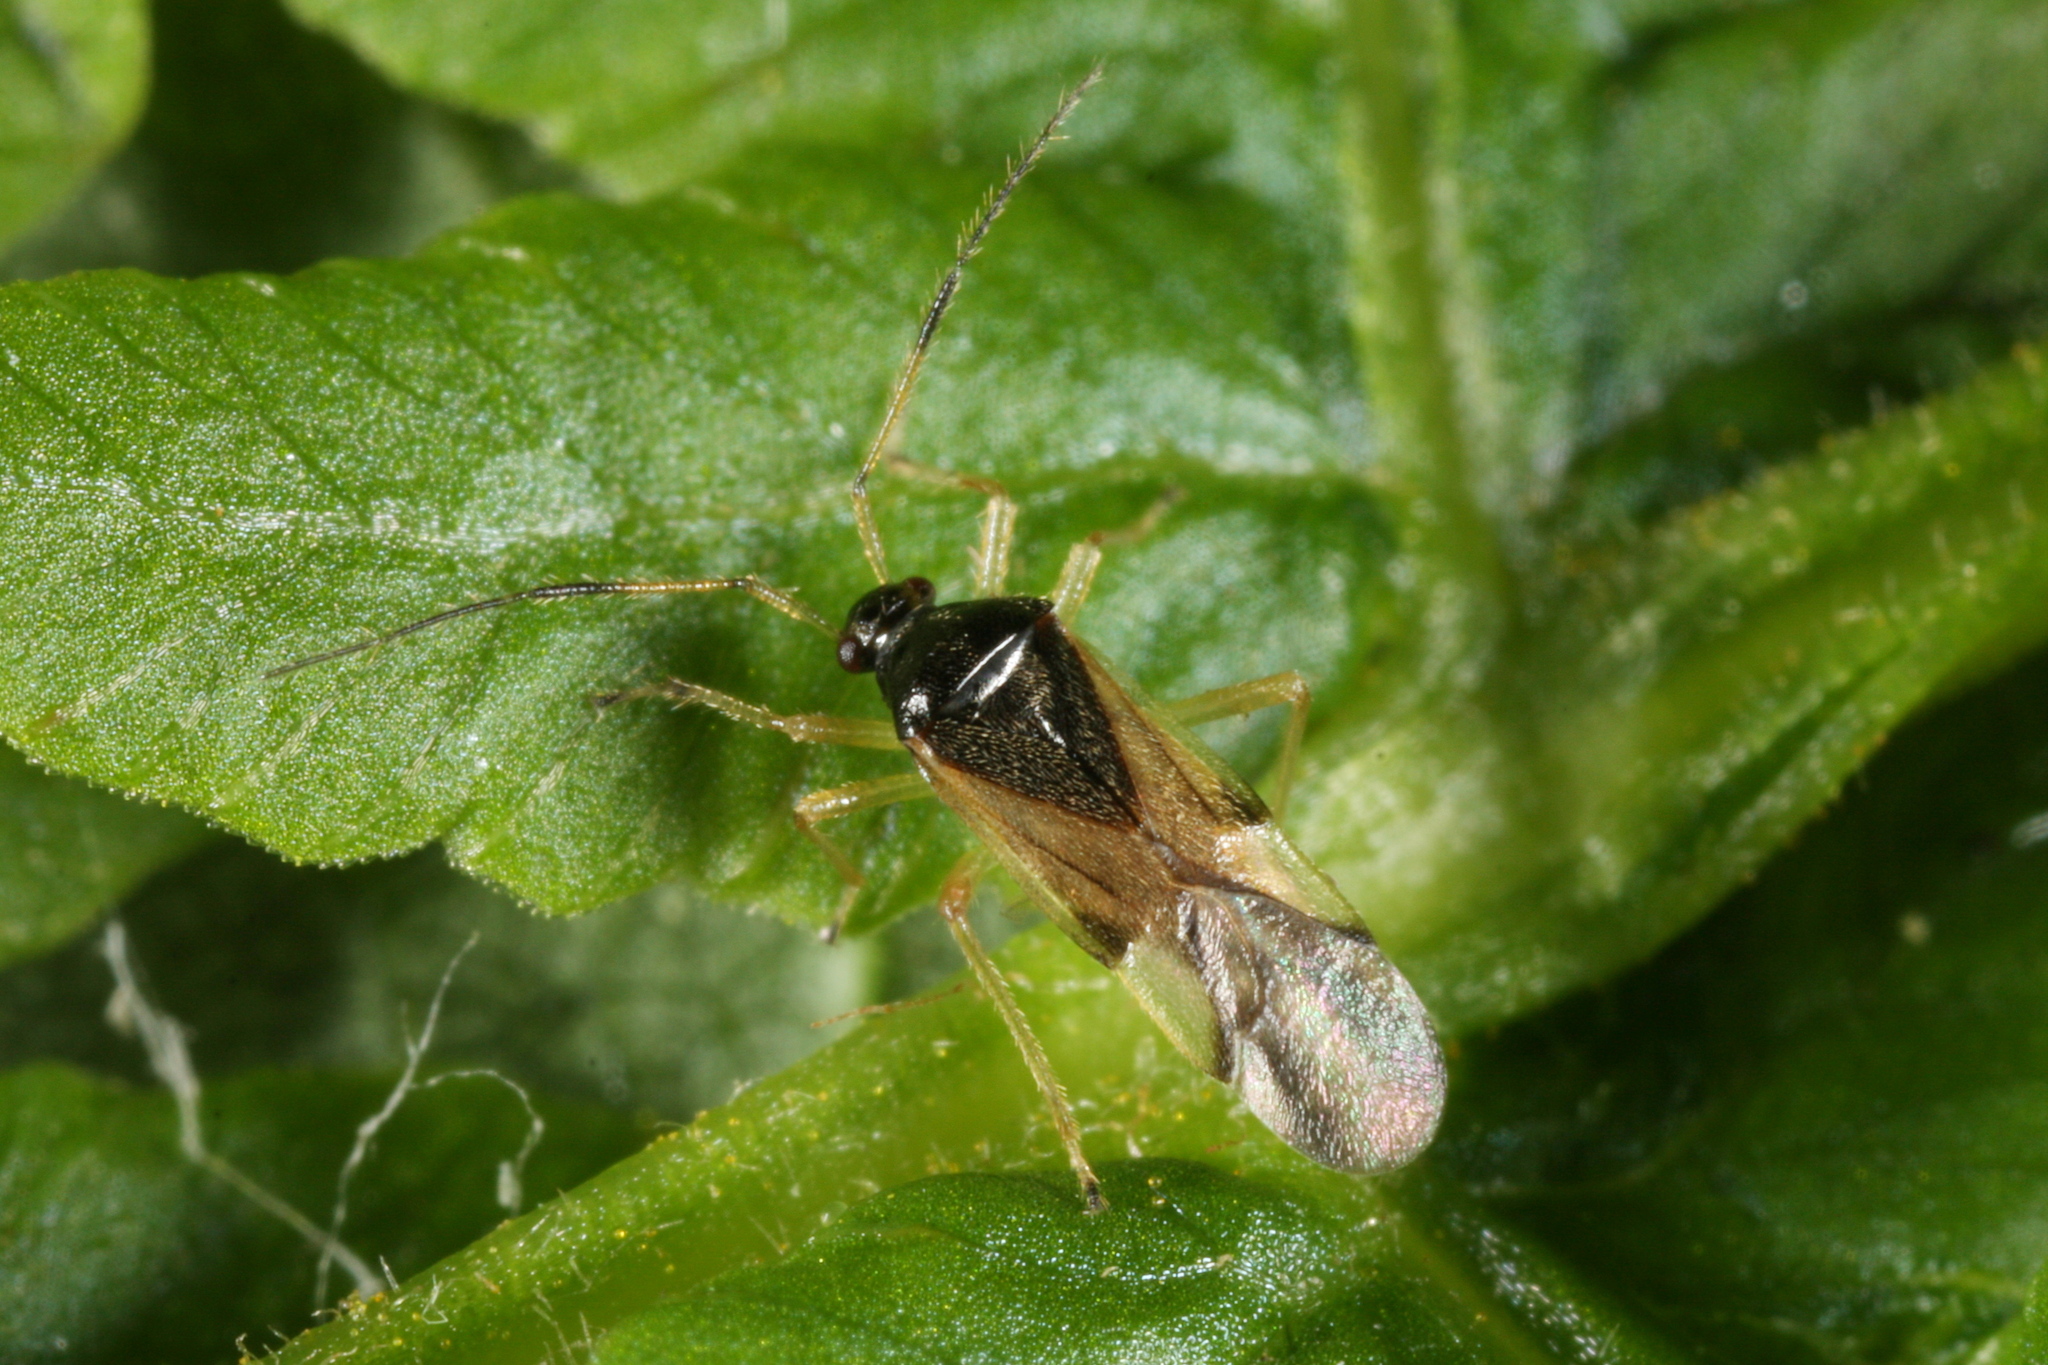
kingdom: Animalia
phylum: Arthropoda
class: Insecta
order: Hemiptera
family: Miridae
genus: Bryocoris
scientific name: Bryocoris pteridis
